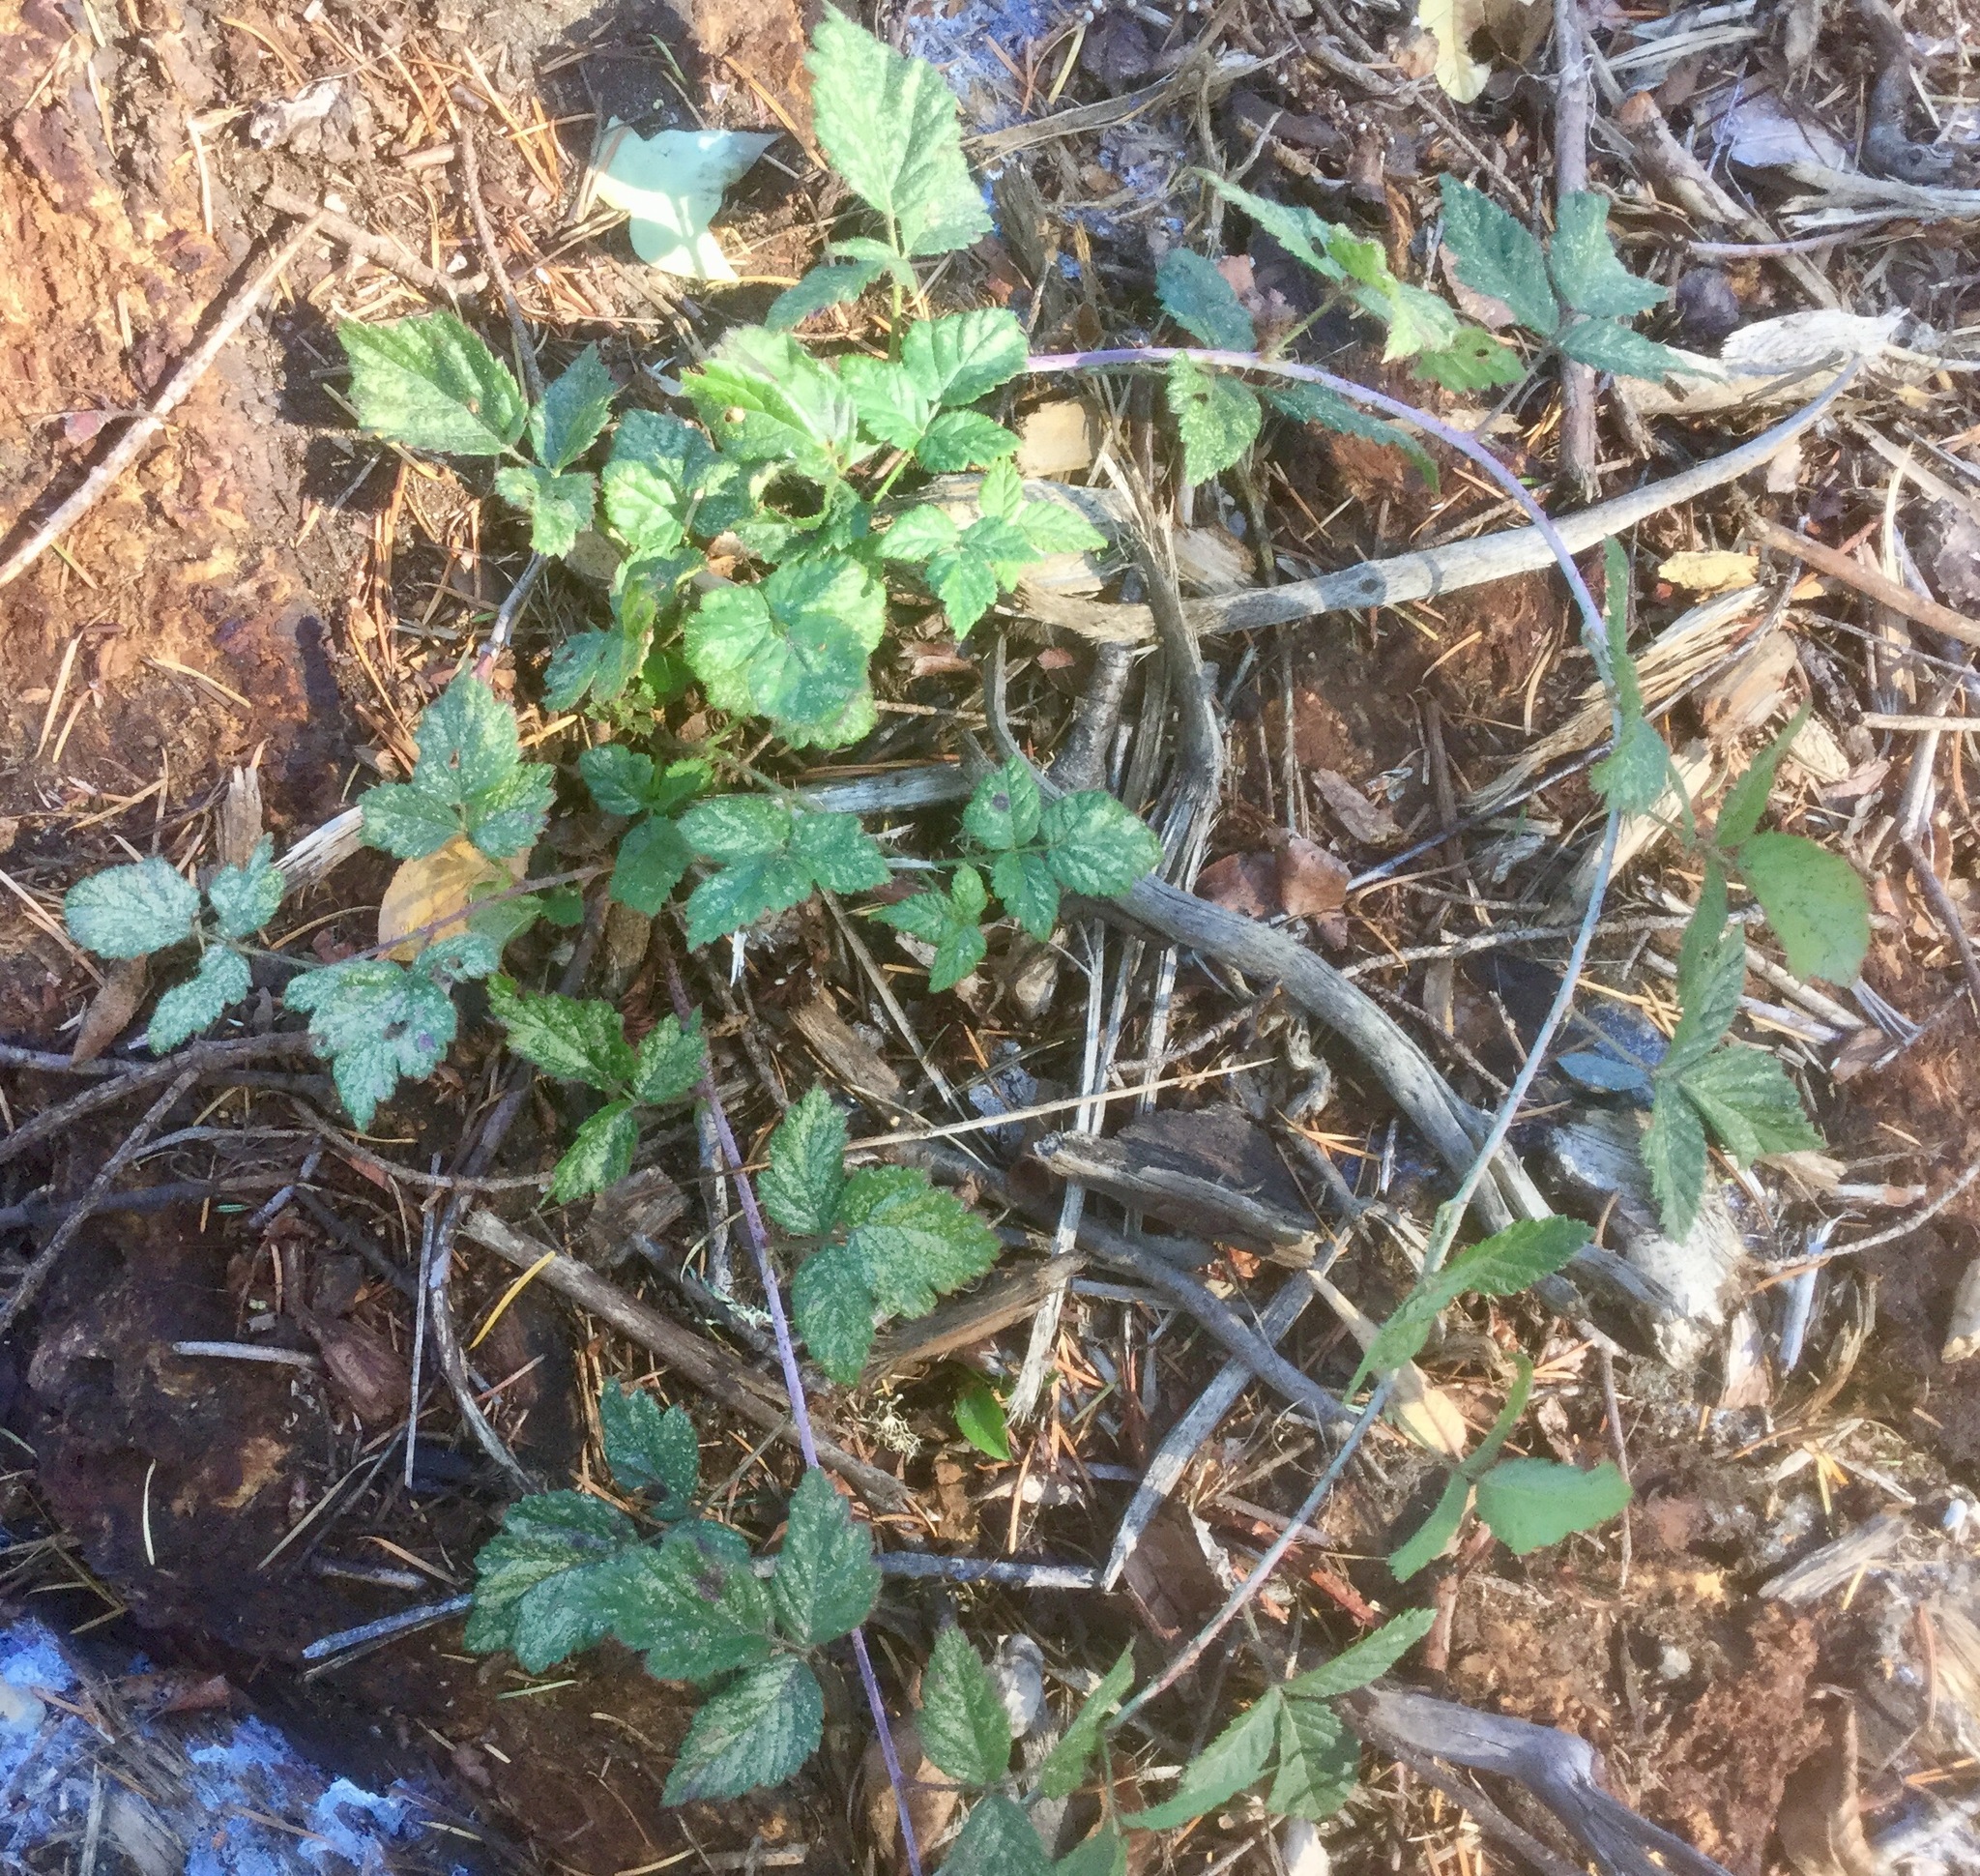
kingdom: Plantae
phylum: Tracheophyta
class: Magnoliopsida
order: Rosales
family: Rosaceae
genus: Rubus
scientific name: Rubus ursinus
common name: Pacific blackberry
